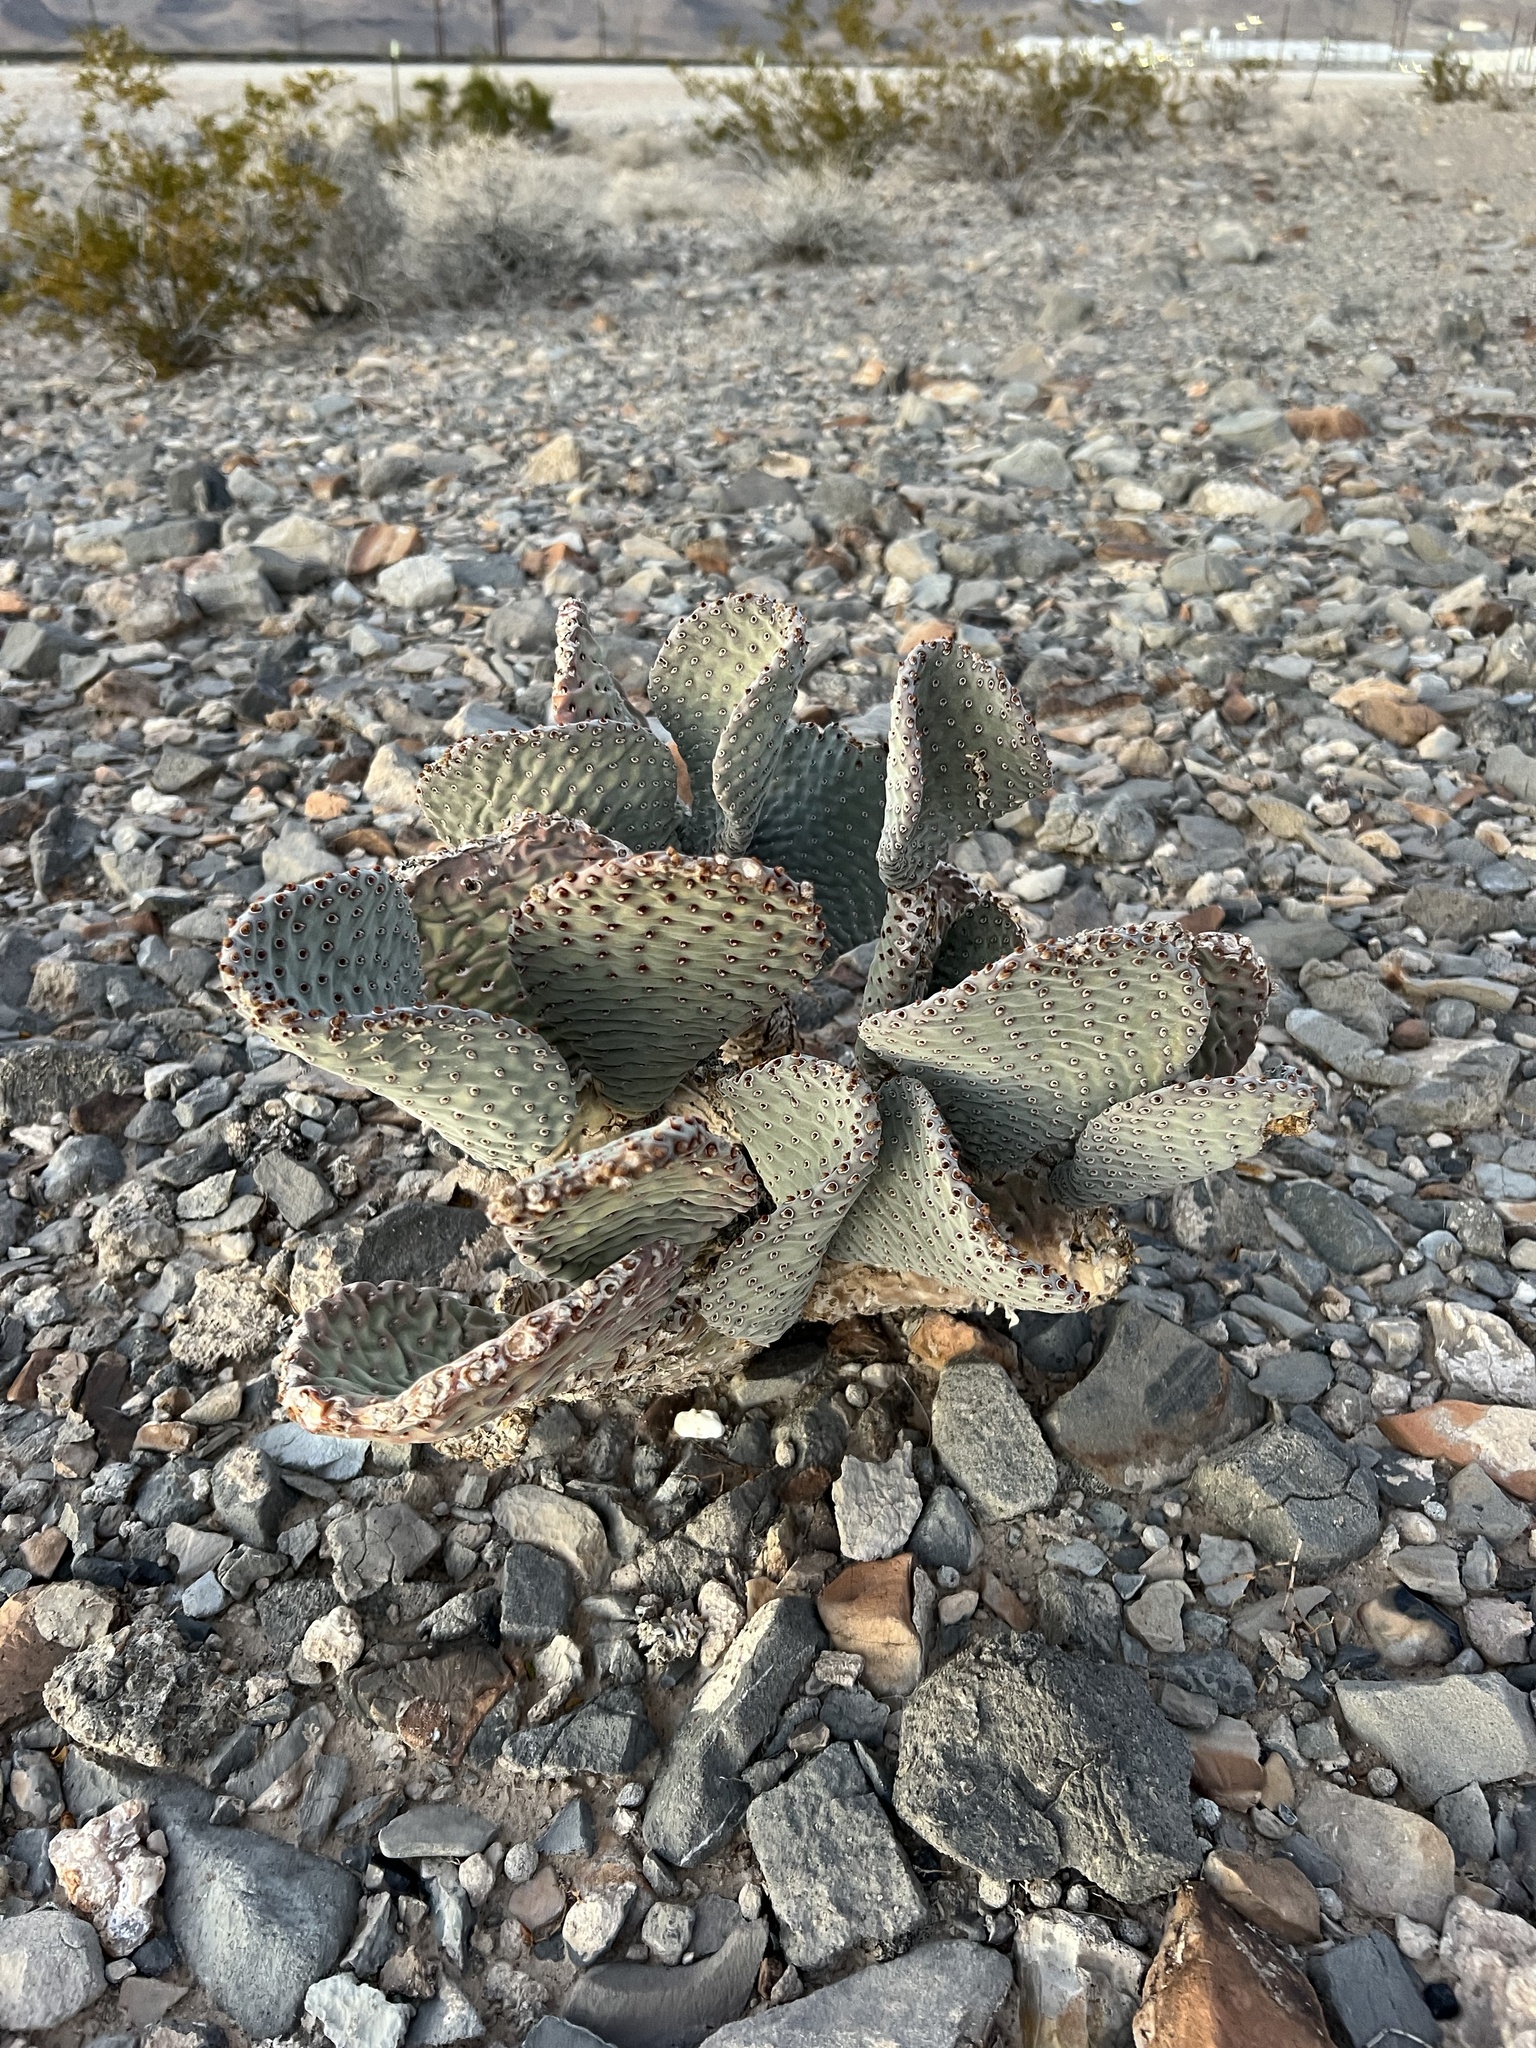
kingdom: Plantae
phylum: Tracheophyta
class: Magnoliopsida
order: Caryophyllales
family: Cactaceae
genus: Opuntia
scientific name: Opuntia basilaris
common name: Beavertail prickly-pear
